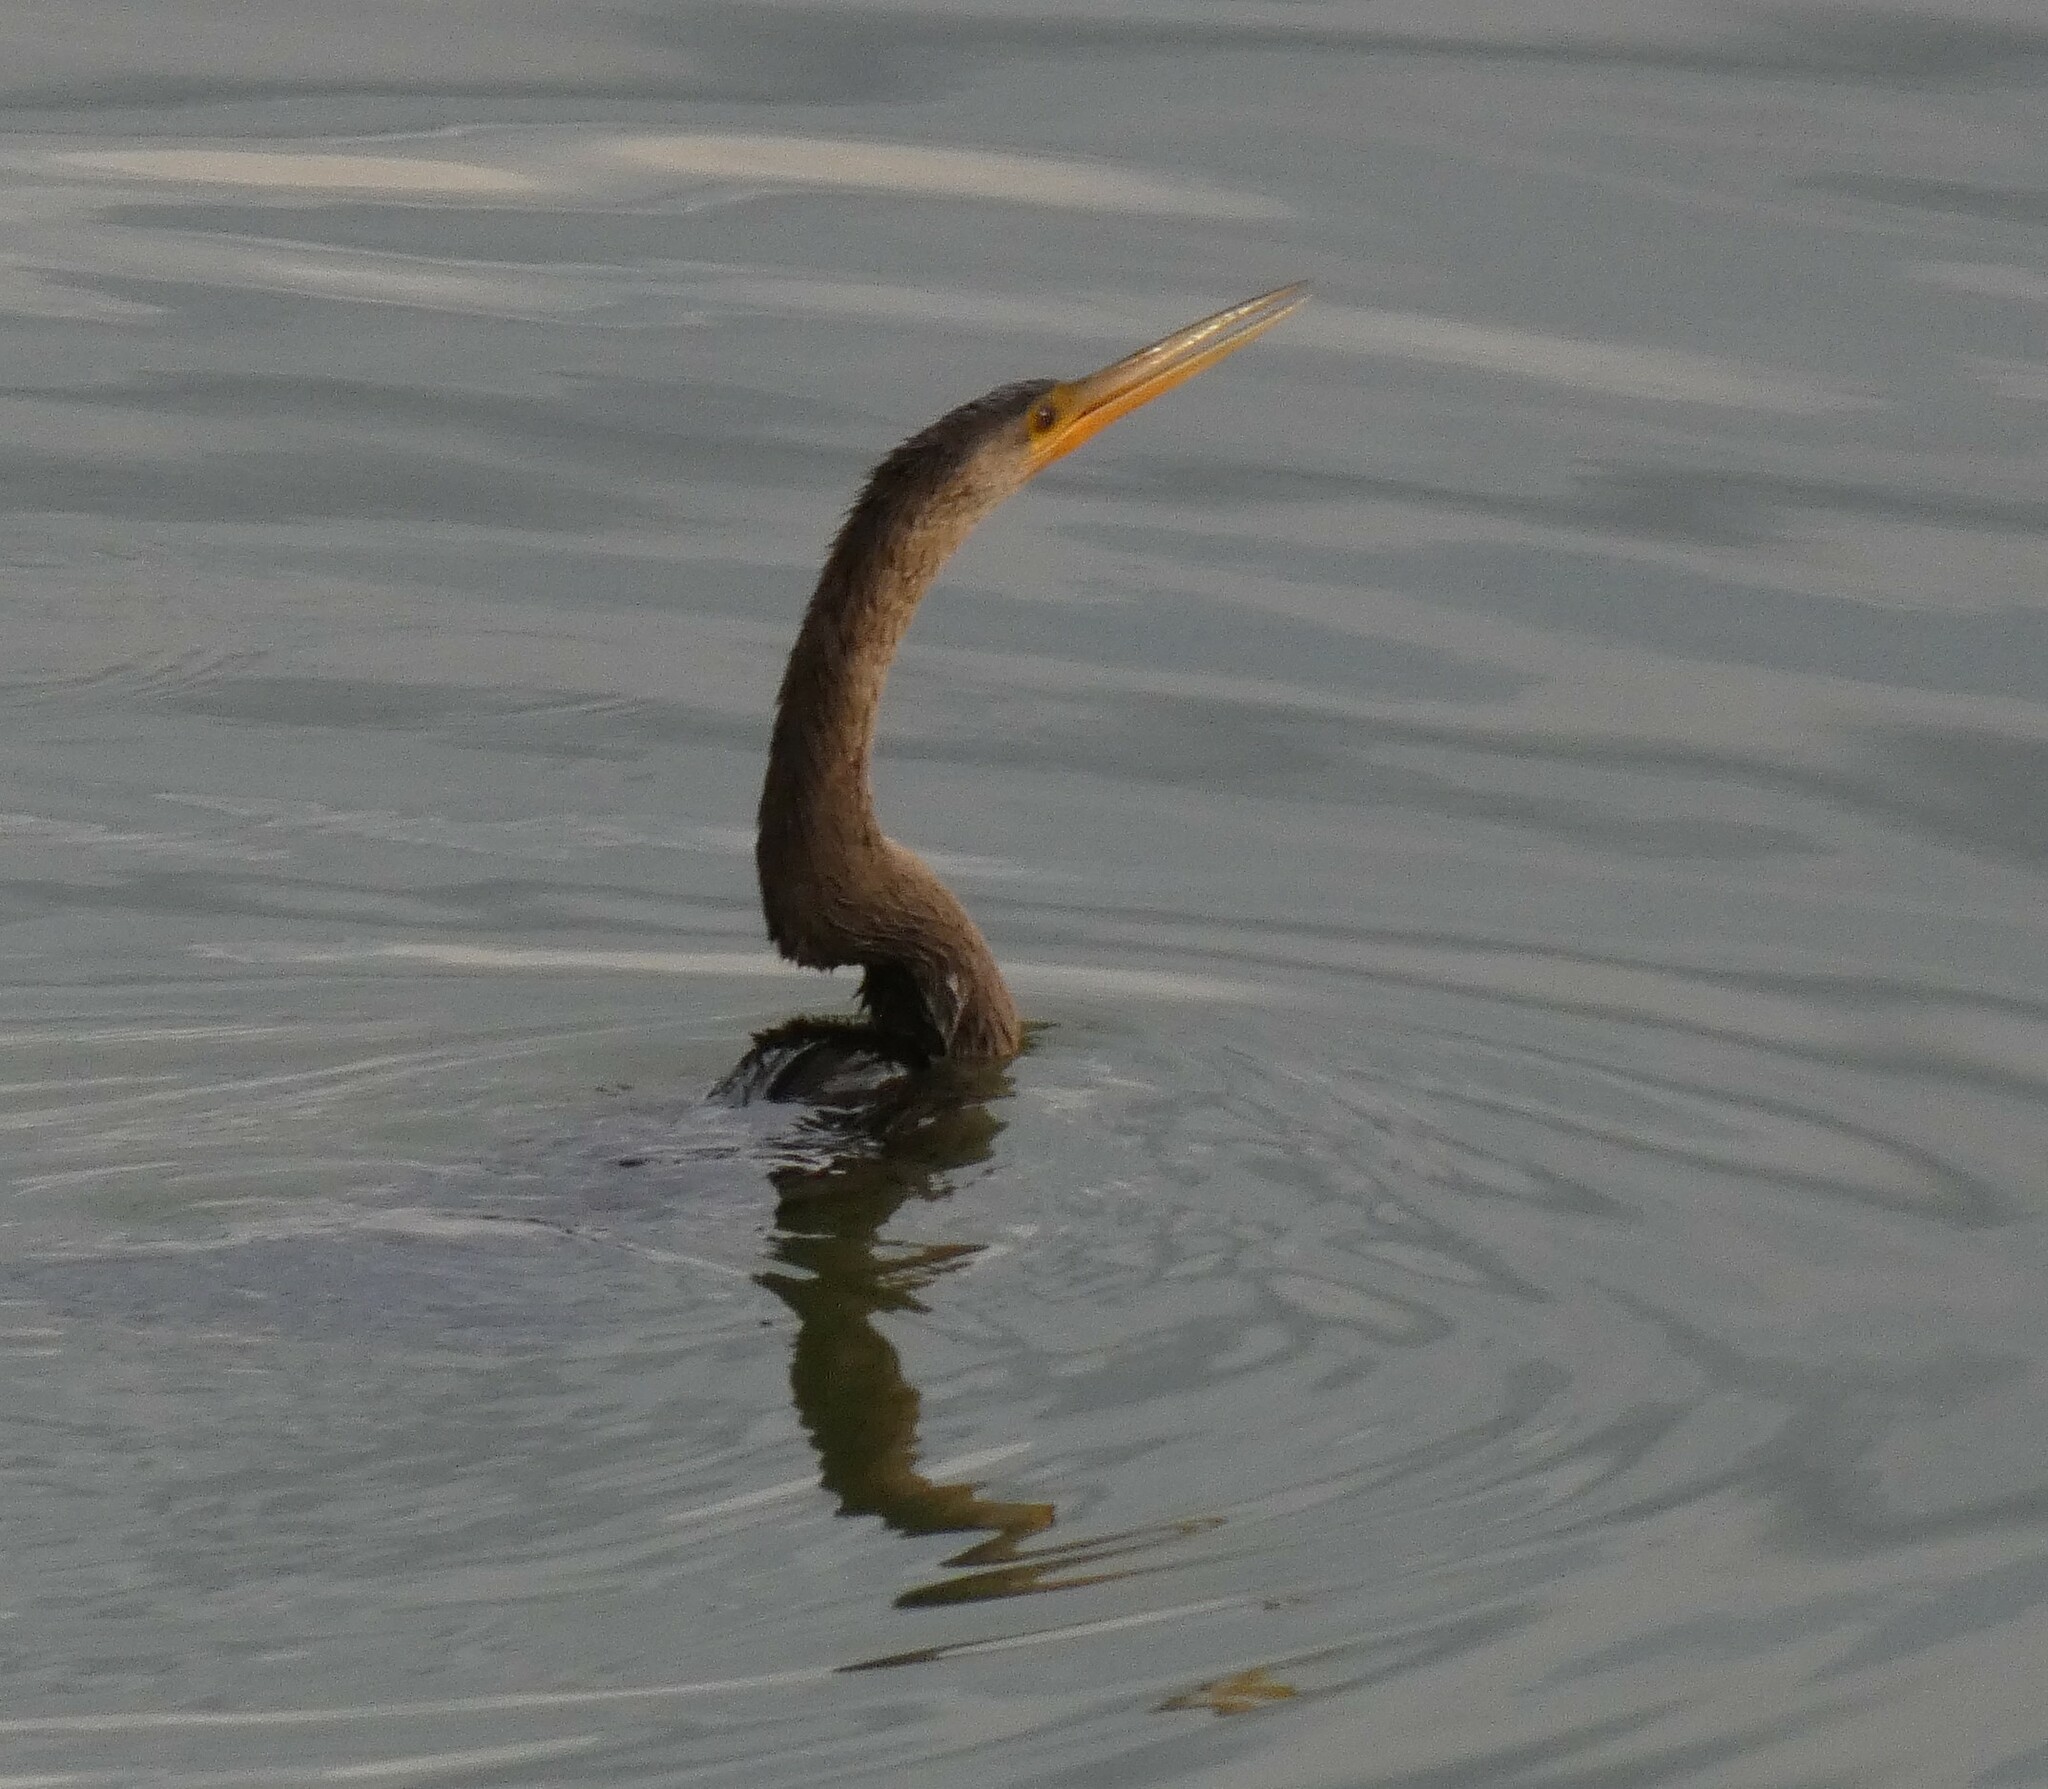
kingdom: Animalia
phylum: Chordata
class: Aves
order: Suliformes
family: Anhingidae
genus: Anhinga
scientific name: Anhinga anhinga
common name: Anhinga
